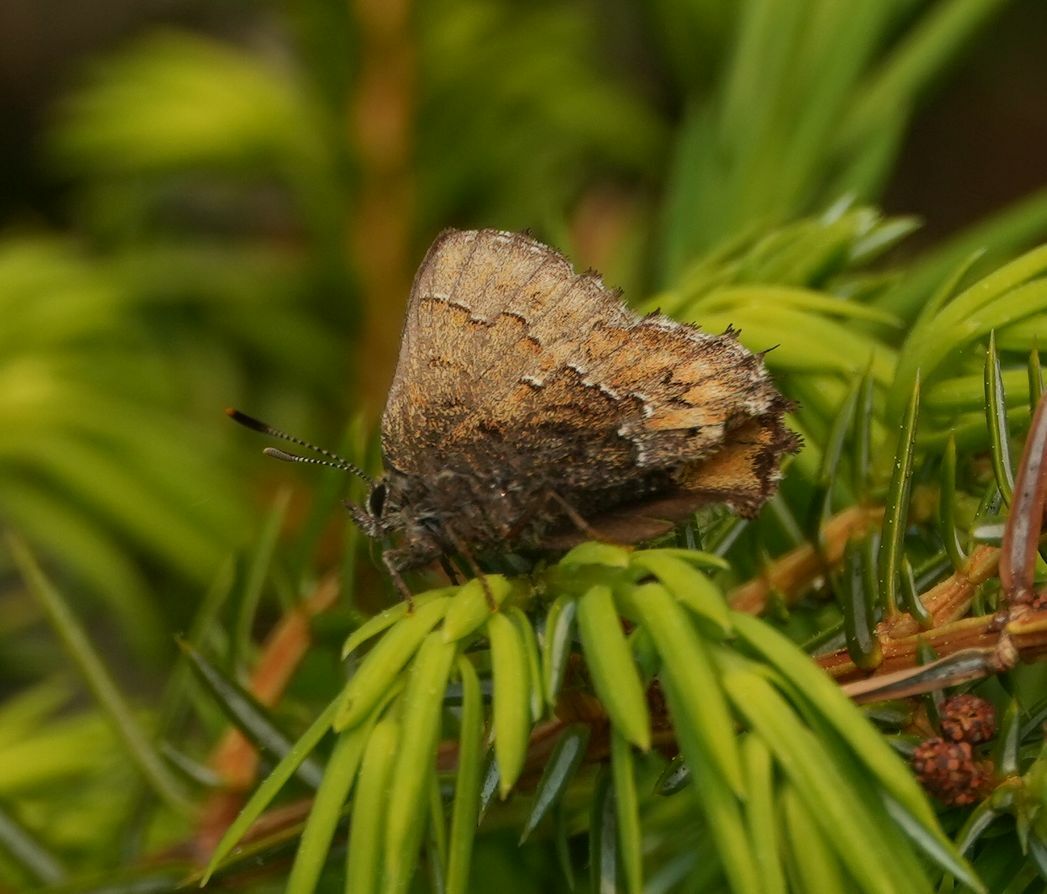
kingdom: Animalia
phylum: Arthropoda
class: Insecta
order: Lepidoptera
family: Lycaenidae
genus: Incisalia
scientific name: Incisalia niphon
